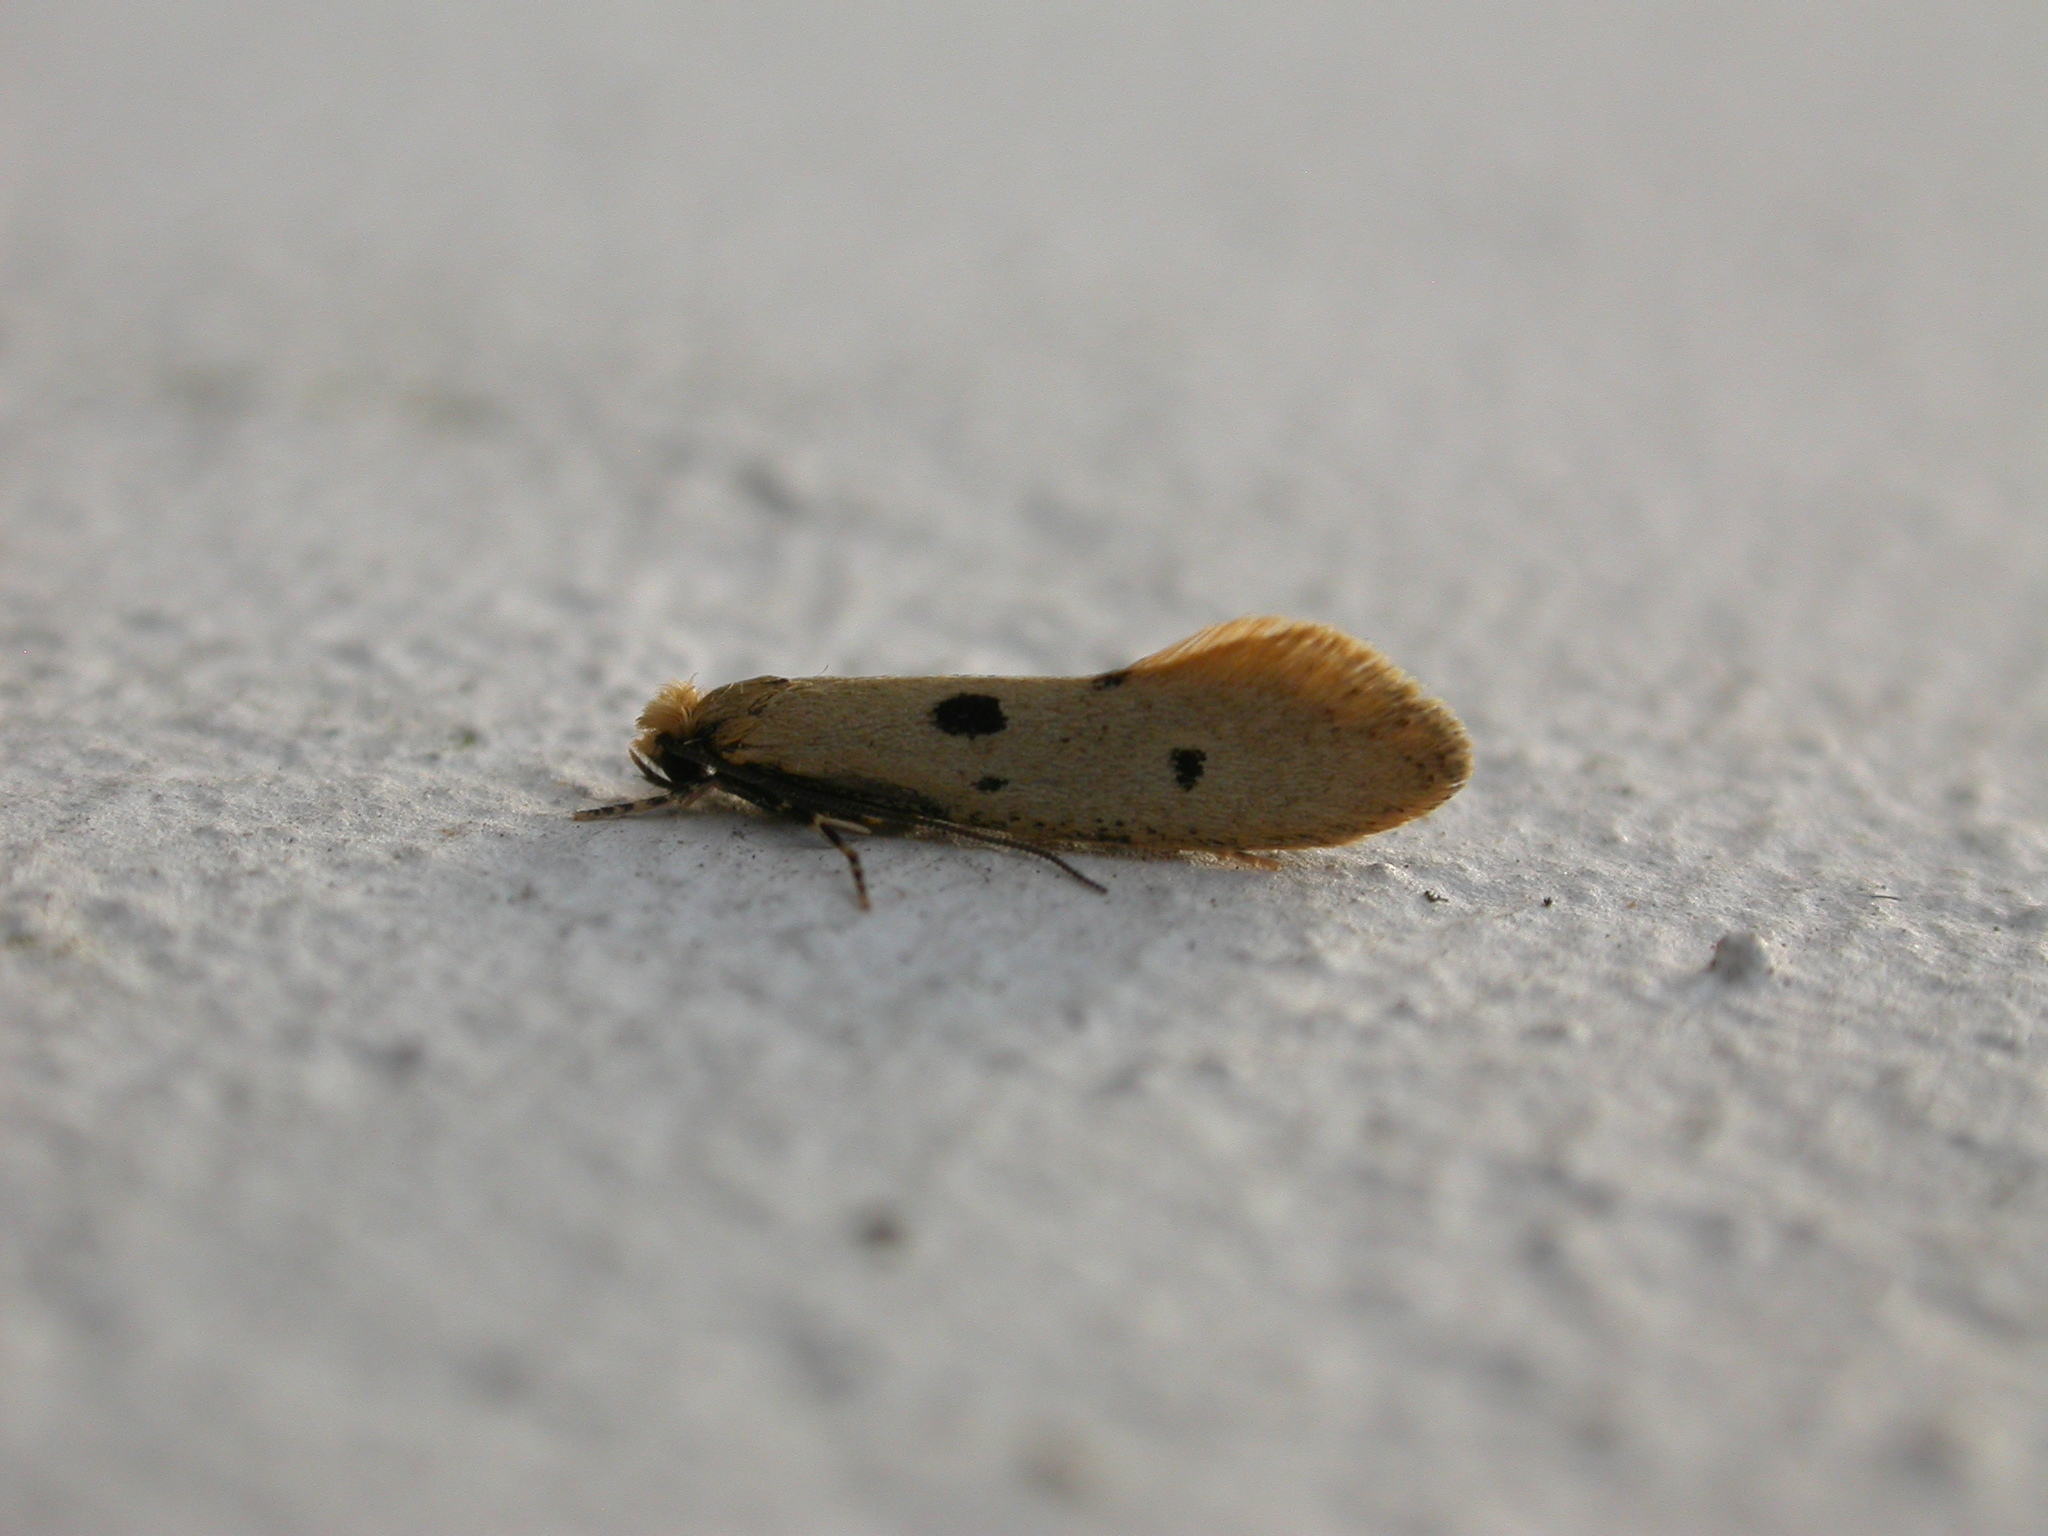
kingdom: Animalia
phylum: Arthropoda
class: Insecta
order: Lepidoptera
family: Tineidae
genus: Tinea
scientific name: Tinea trinotella
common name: Bird's-nest moth
